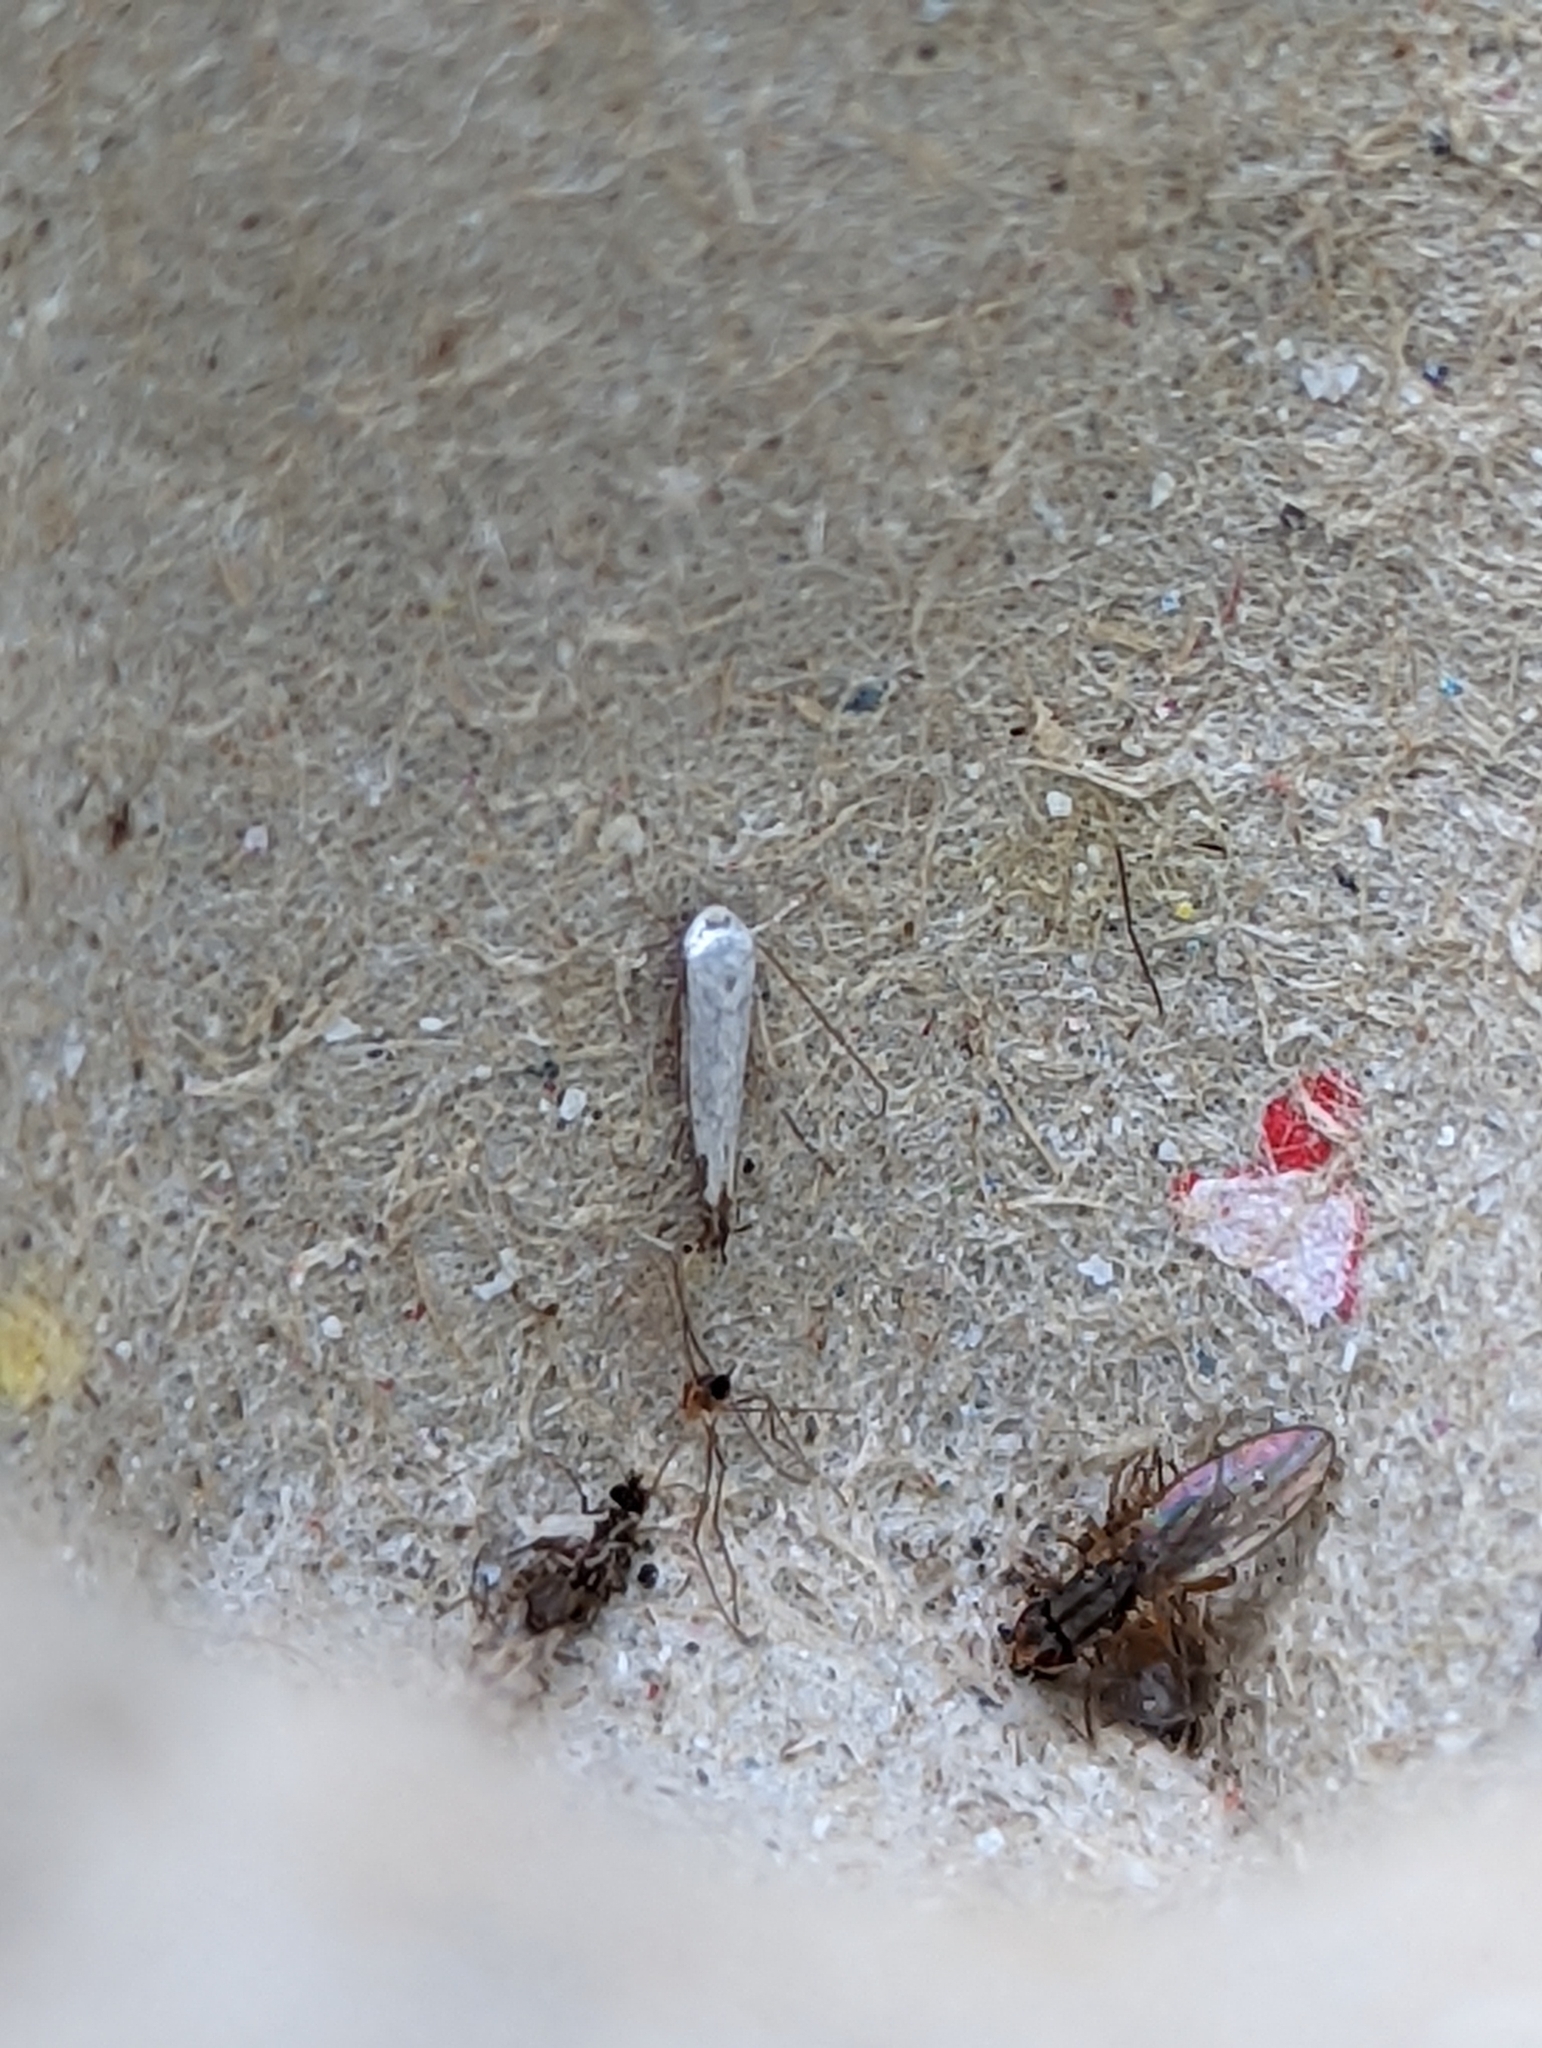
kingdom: Animalia
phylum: Arthropoda
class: Insecta
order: Lepidoptera
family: Lyonetiidae
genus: Lyonetia
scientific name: Lyonetia clerkella
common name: Apple leaf miner
